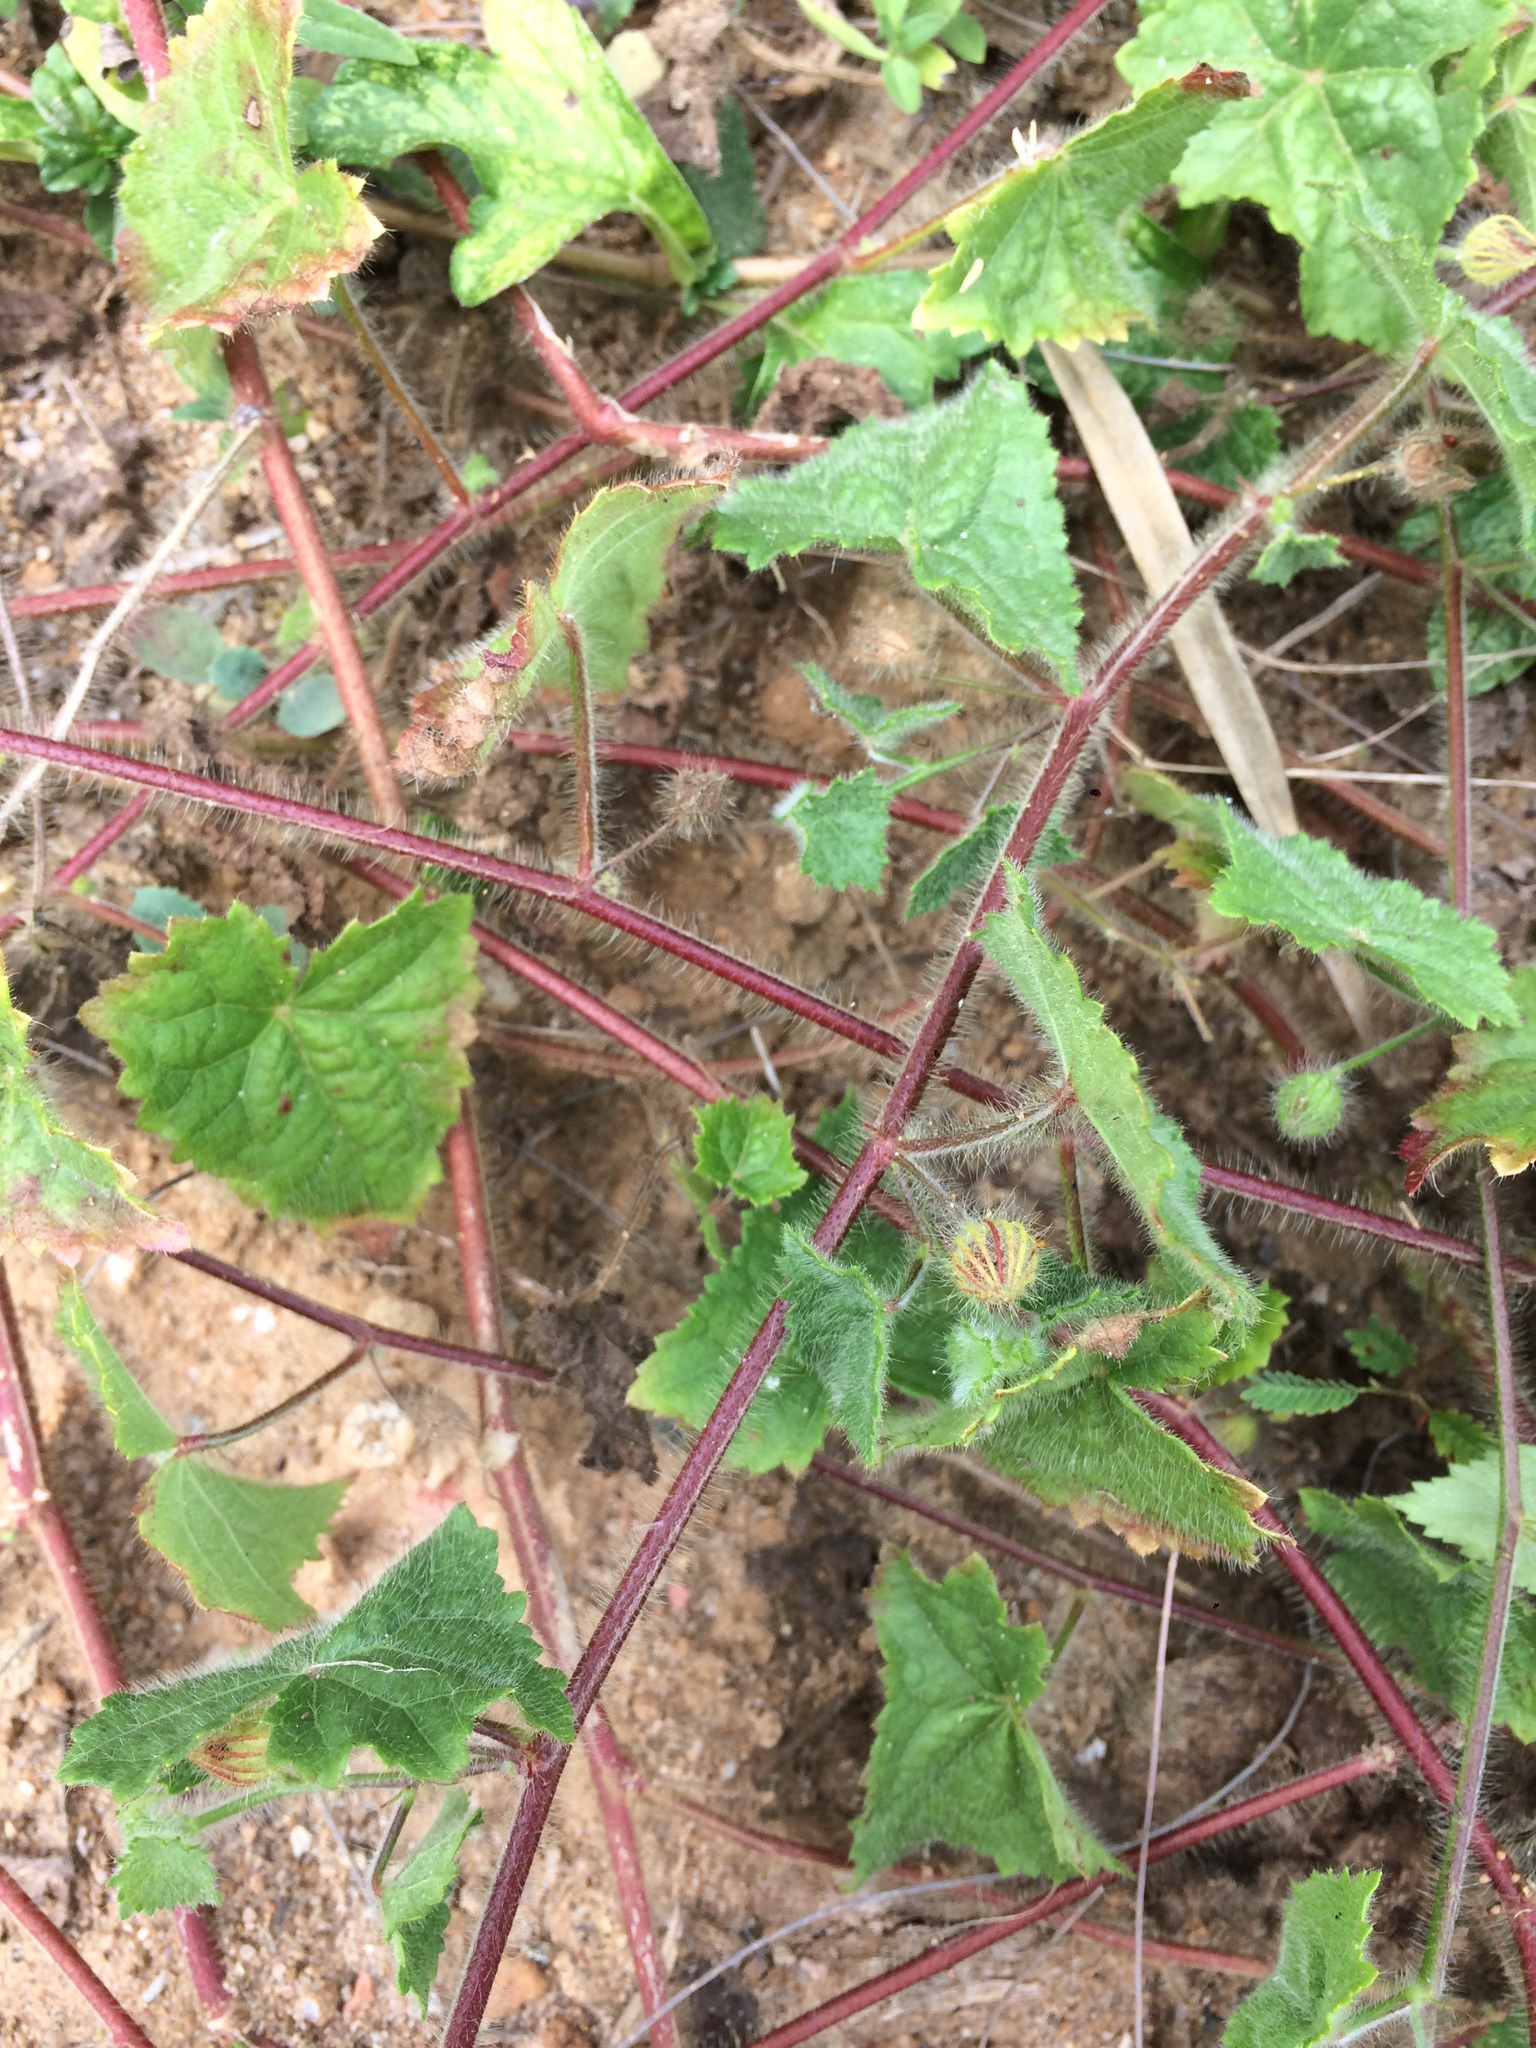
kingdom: Plantae
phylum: Tracheophyta
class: Magnoliopsida
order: Malvales
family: Malvaceae
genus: Pavonia
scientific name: Pavonia cancellata
